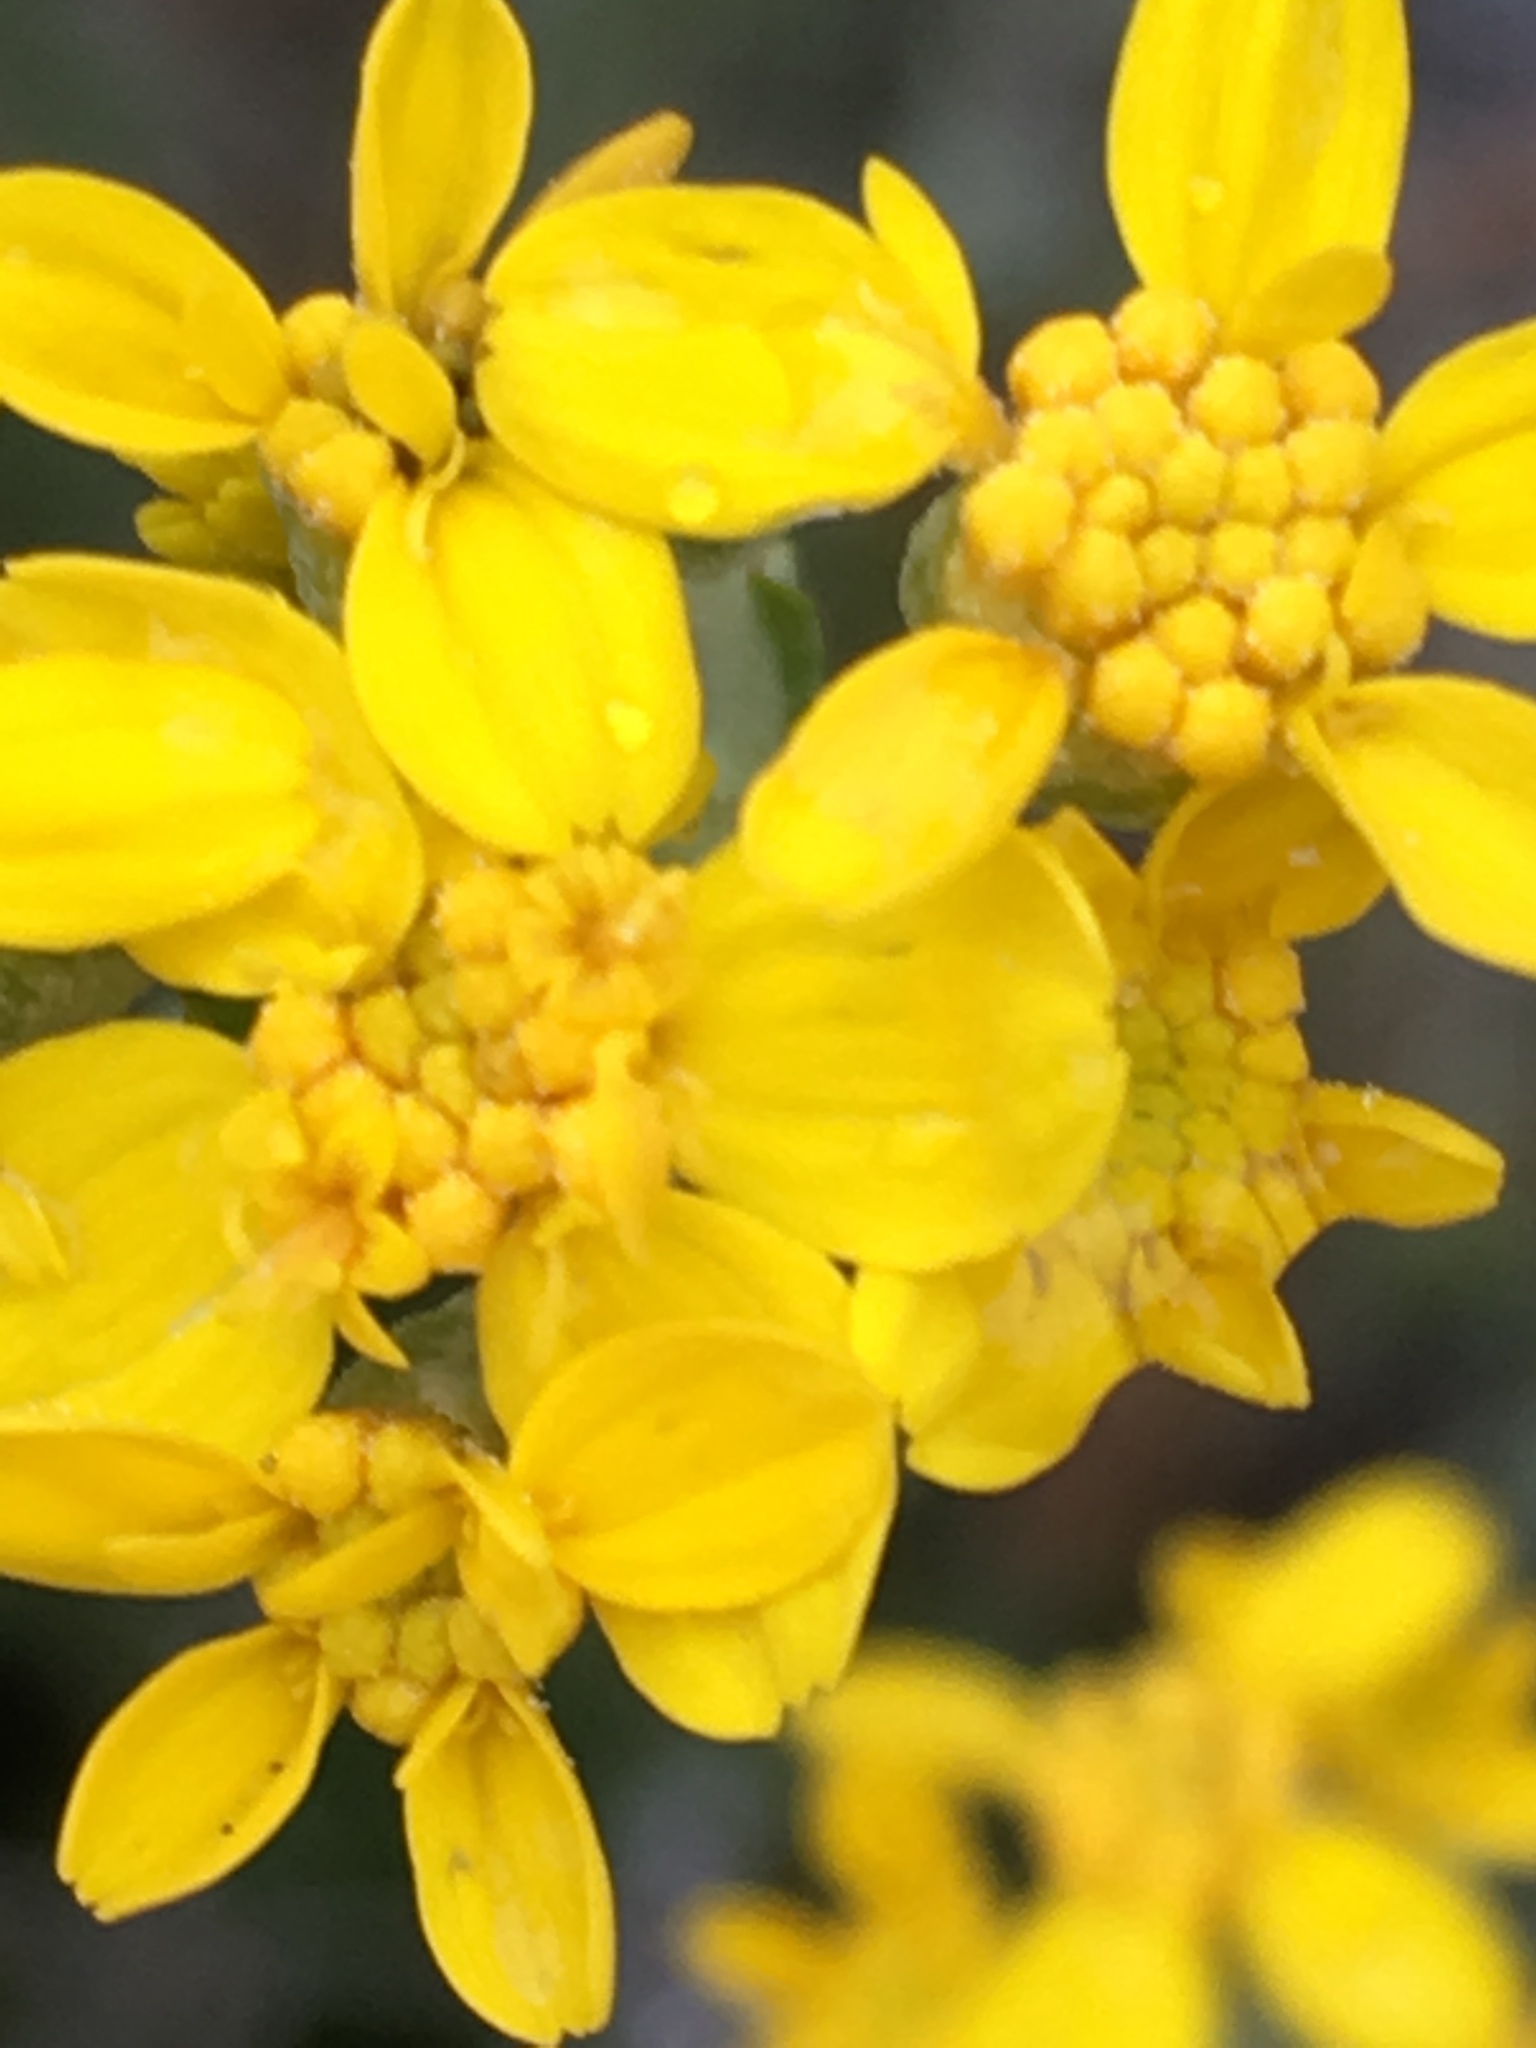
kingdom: Plantae
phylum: Tracheophyta
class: Magnoliopsida
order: Asterales
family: Asteraceae
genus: Eriophyllum
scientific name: Eriophyllum confertiflorum
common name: Golden-yarrow
